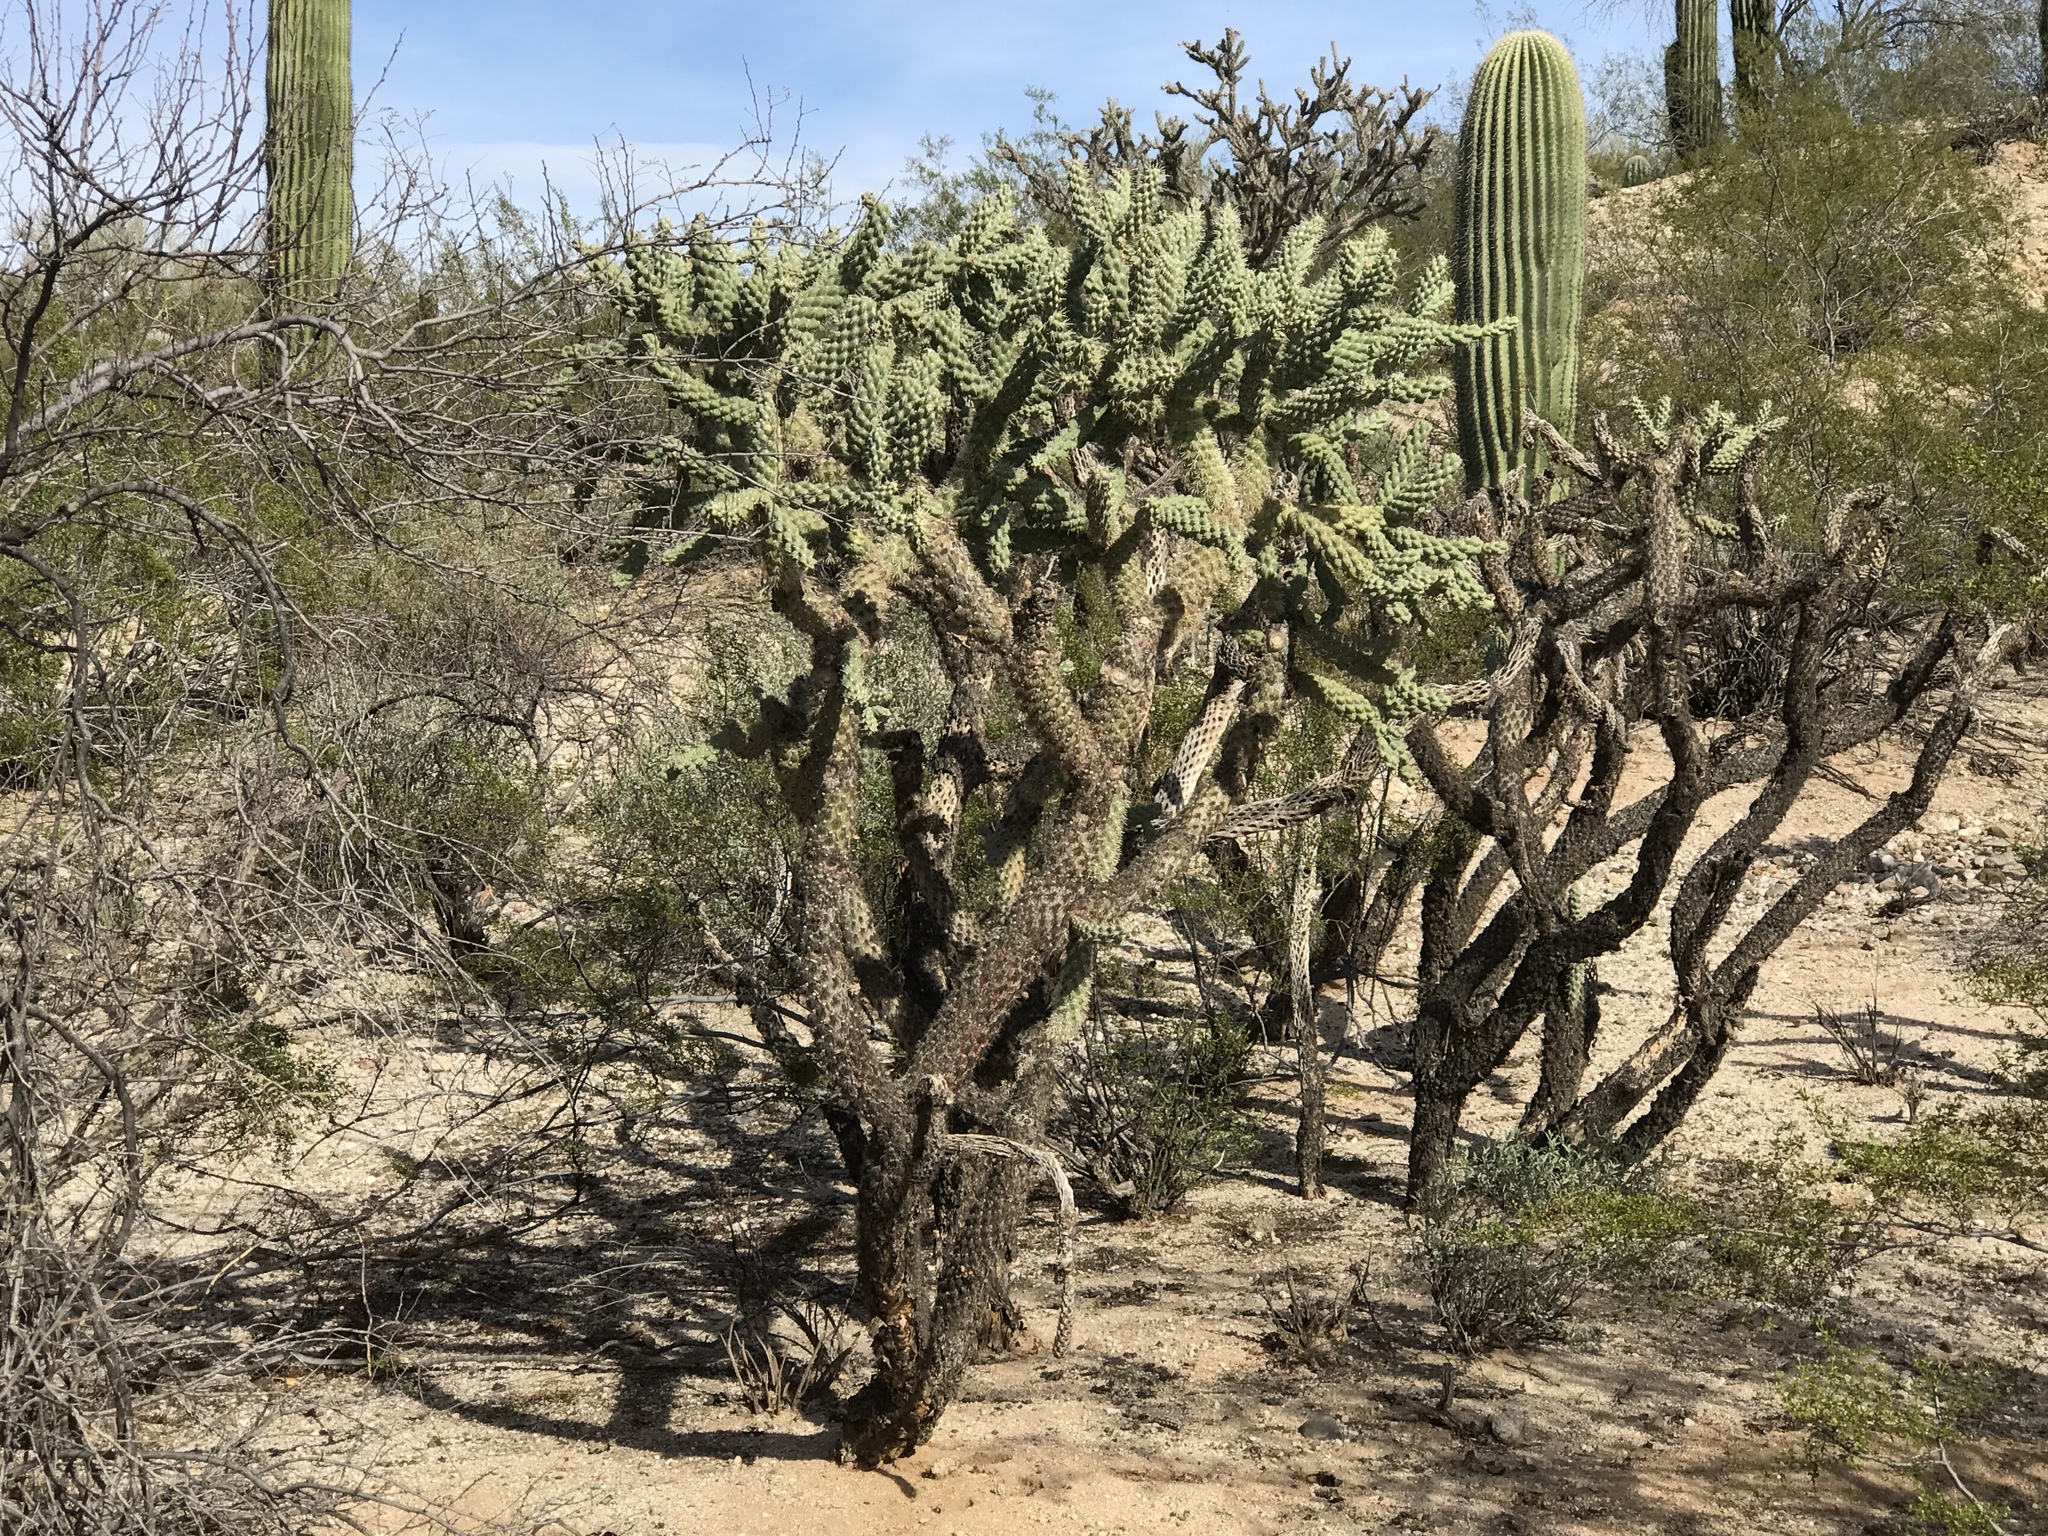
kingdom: Plantae
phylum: Tracheophyta
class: Magnoliopsida
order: Caryophyllales
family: Cactaceae
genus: Cylindropuntia
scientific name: Cylindropuntia fulgida
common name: Jumping cholla
